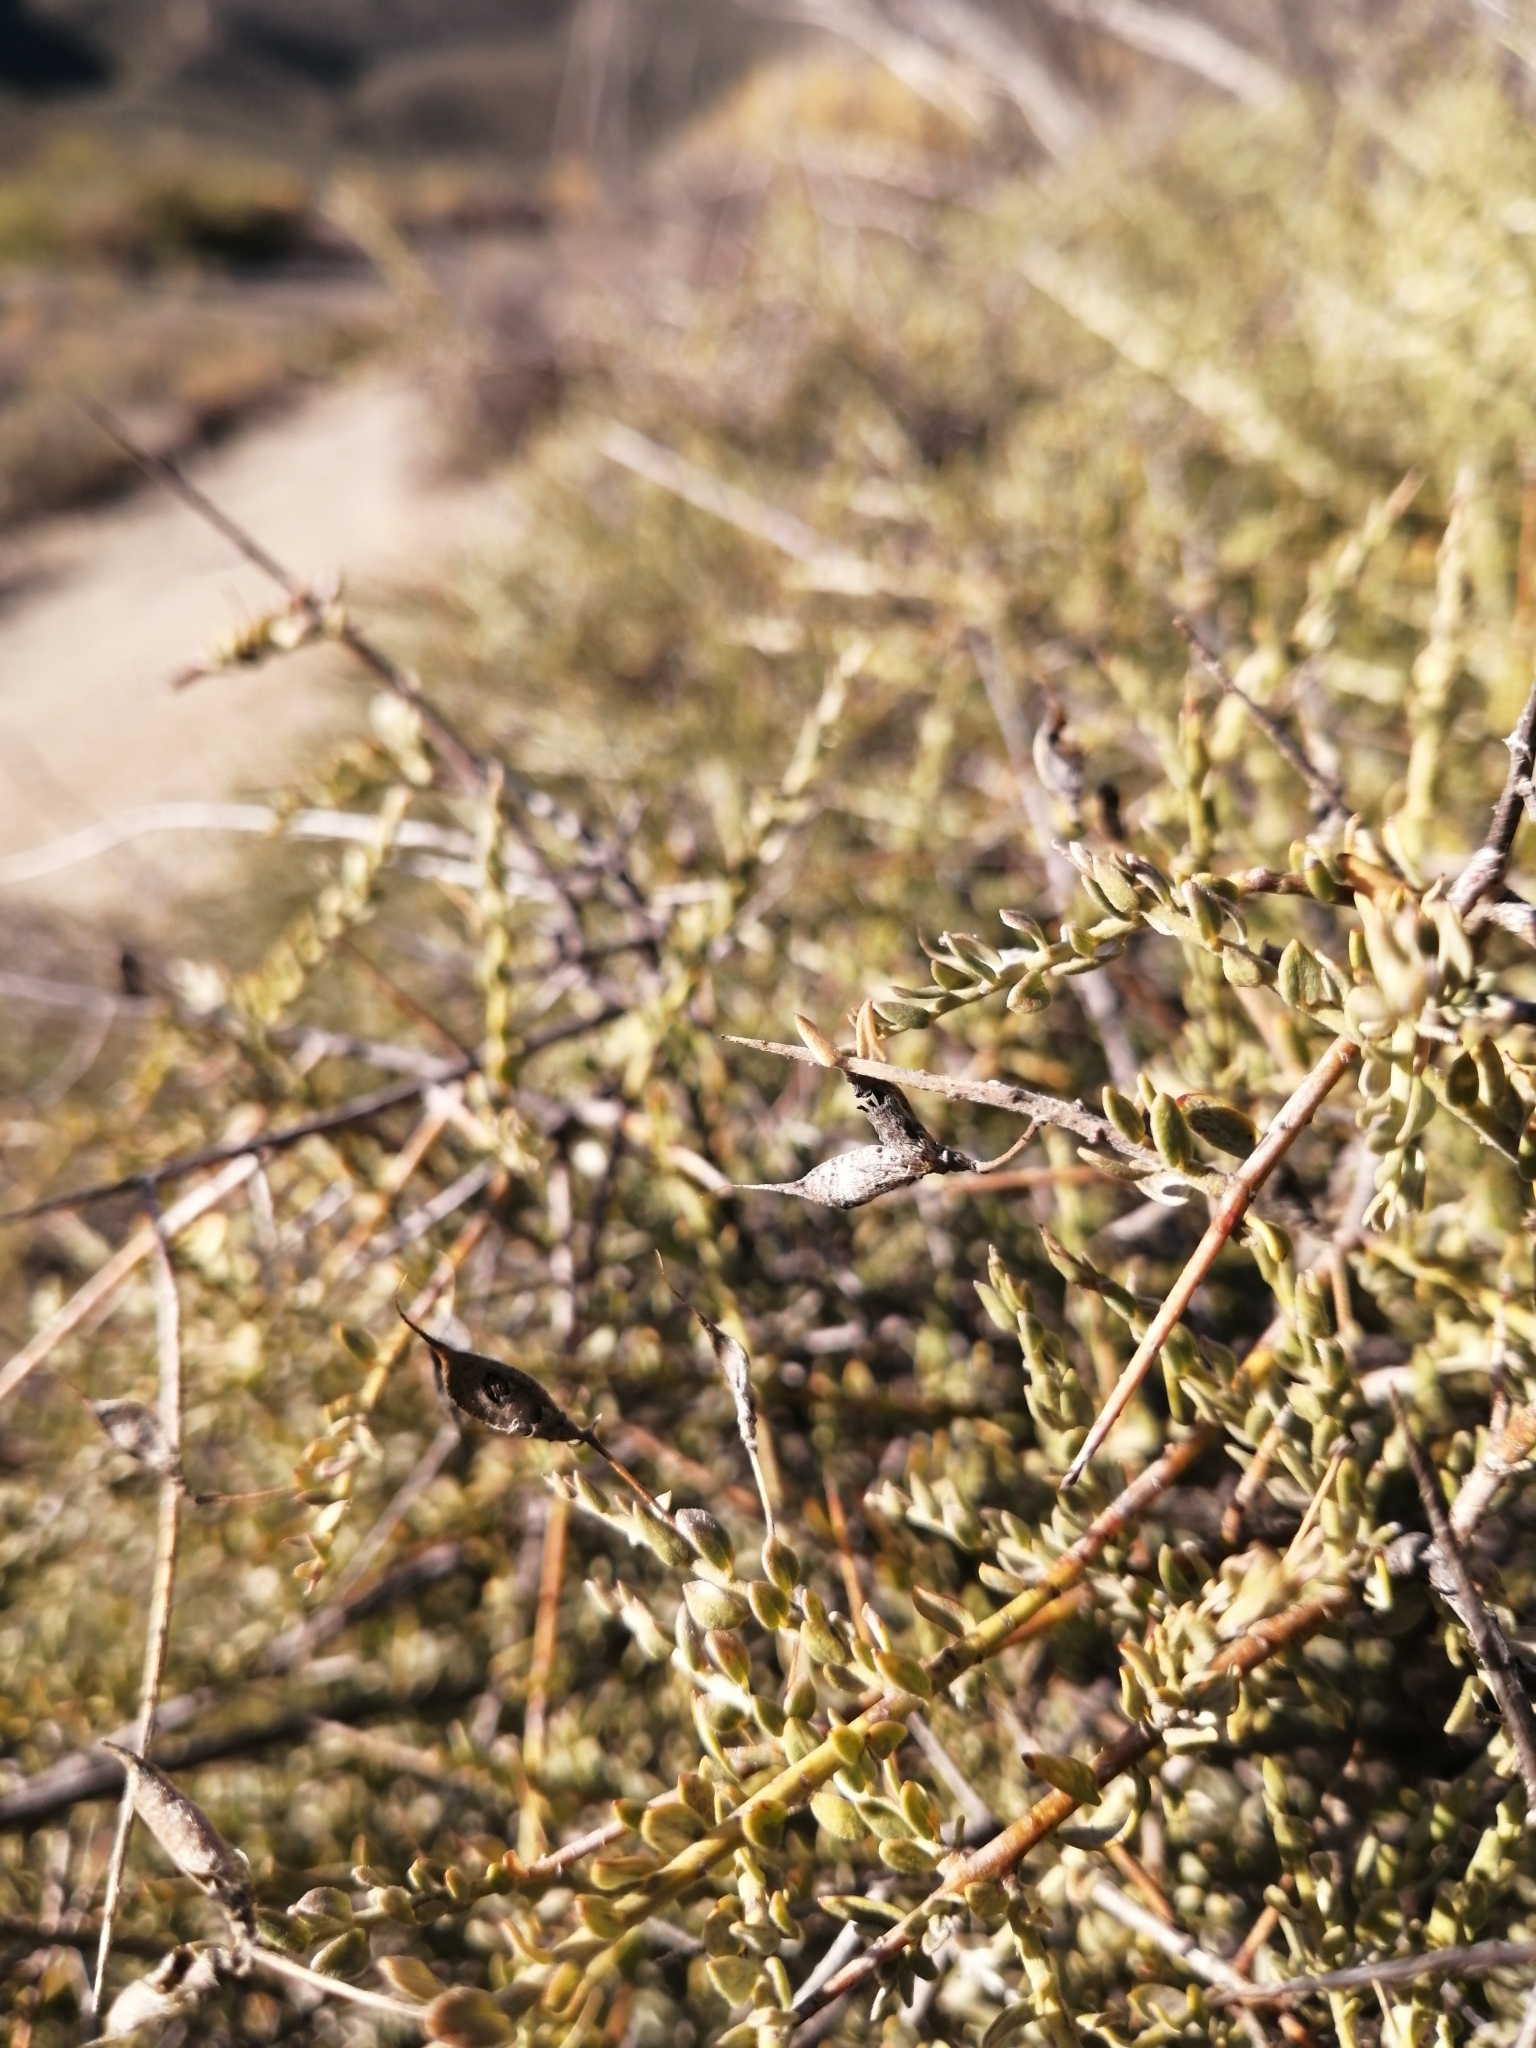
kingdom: Plantae
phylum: Tracheophyta
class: Magnoliopsida
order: Fabales
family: Fabaceae
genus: Amphithalea
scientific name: Amphithalea spinosa
